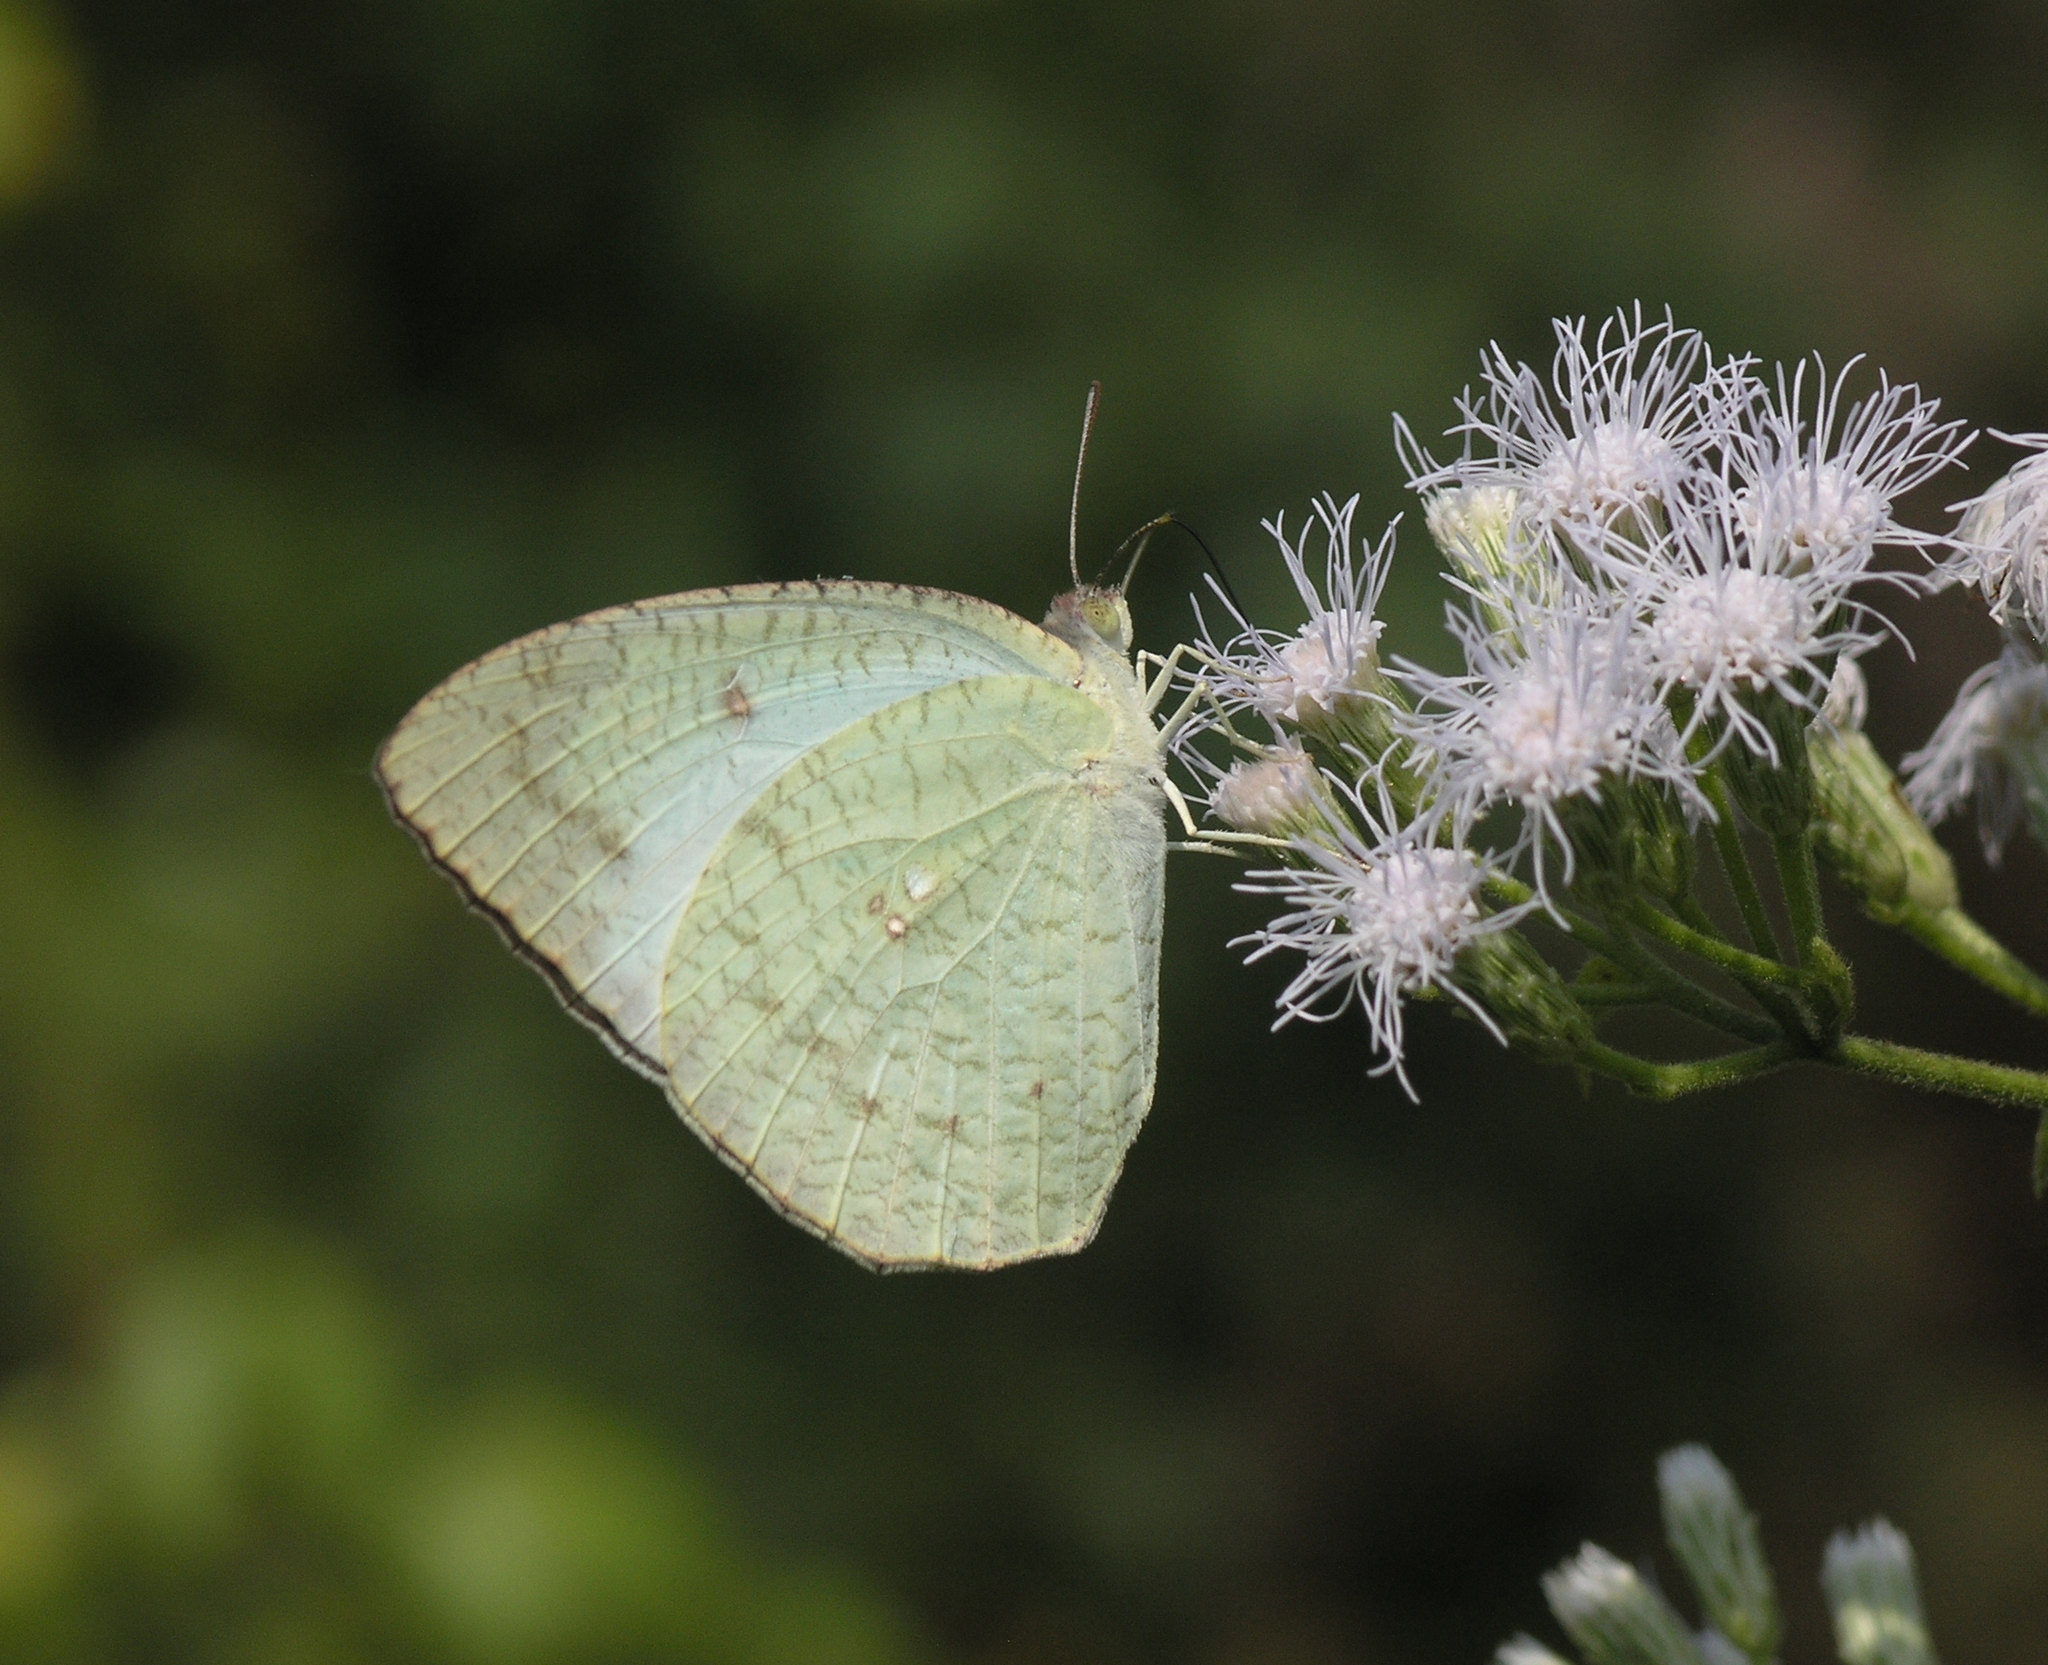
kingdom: Animalia
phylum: Arthropoda
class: Insecta
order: Lepidoptera
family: Pieridae
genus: Catopsilia
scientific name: Catopsilia pyranthe
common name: Mottled emigrant
